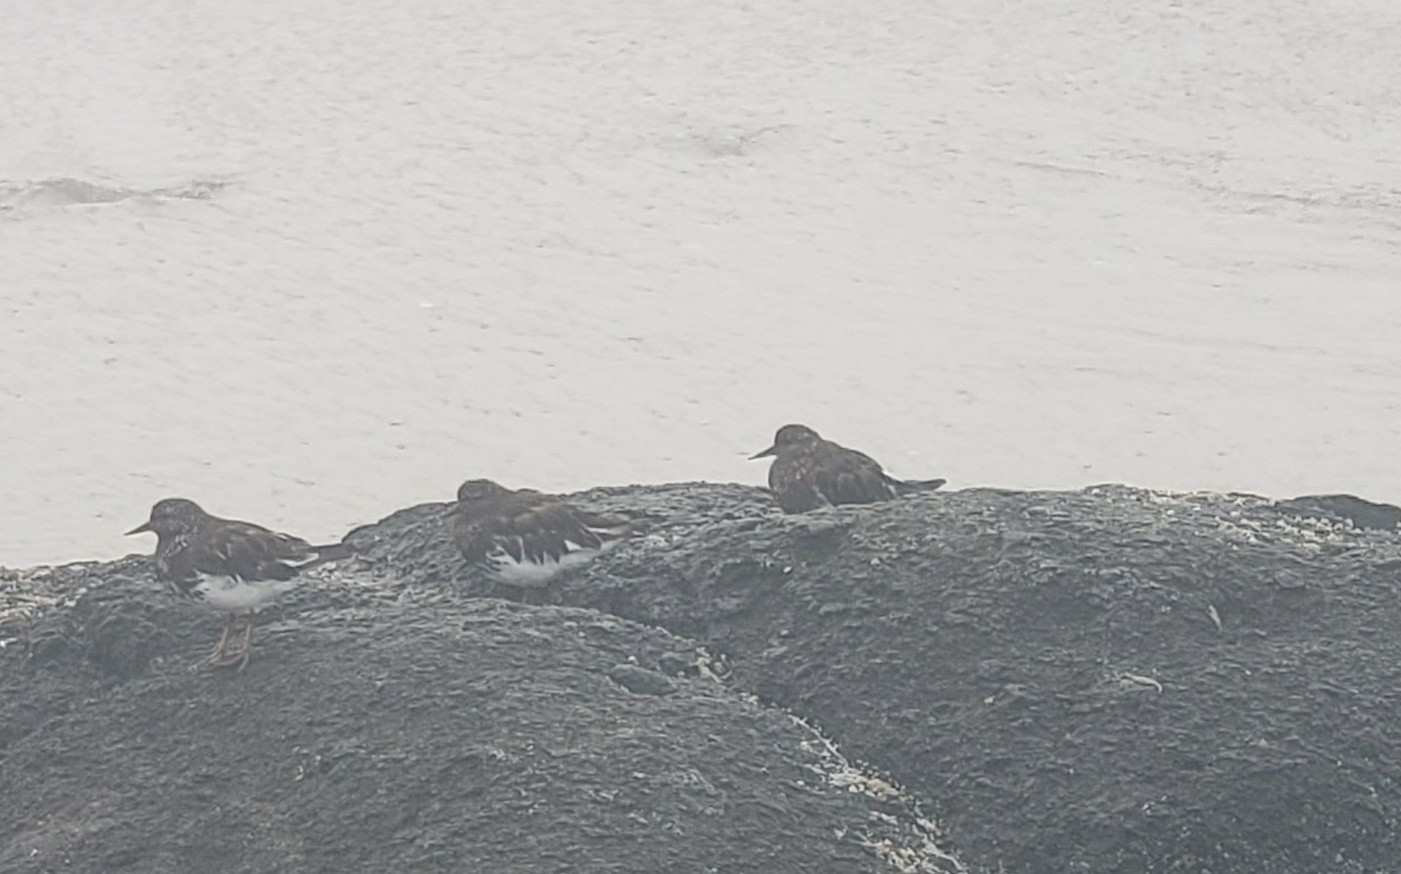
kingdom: Animalia
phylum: Chordata
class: Aves
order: Charadriiformes
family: Scolopacidae
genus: Arenaria
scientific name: Arenaria melanocephala
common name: Black turnstone
